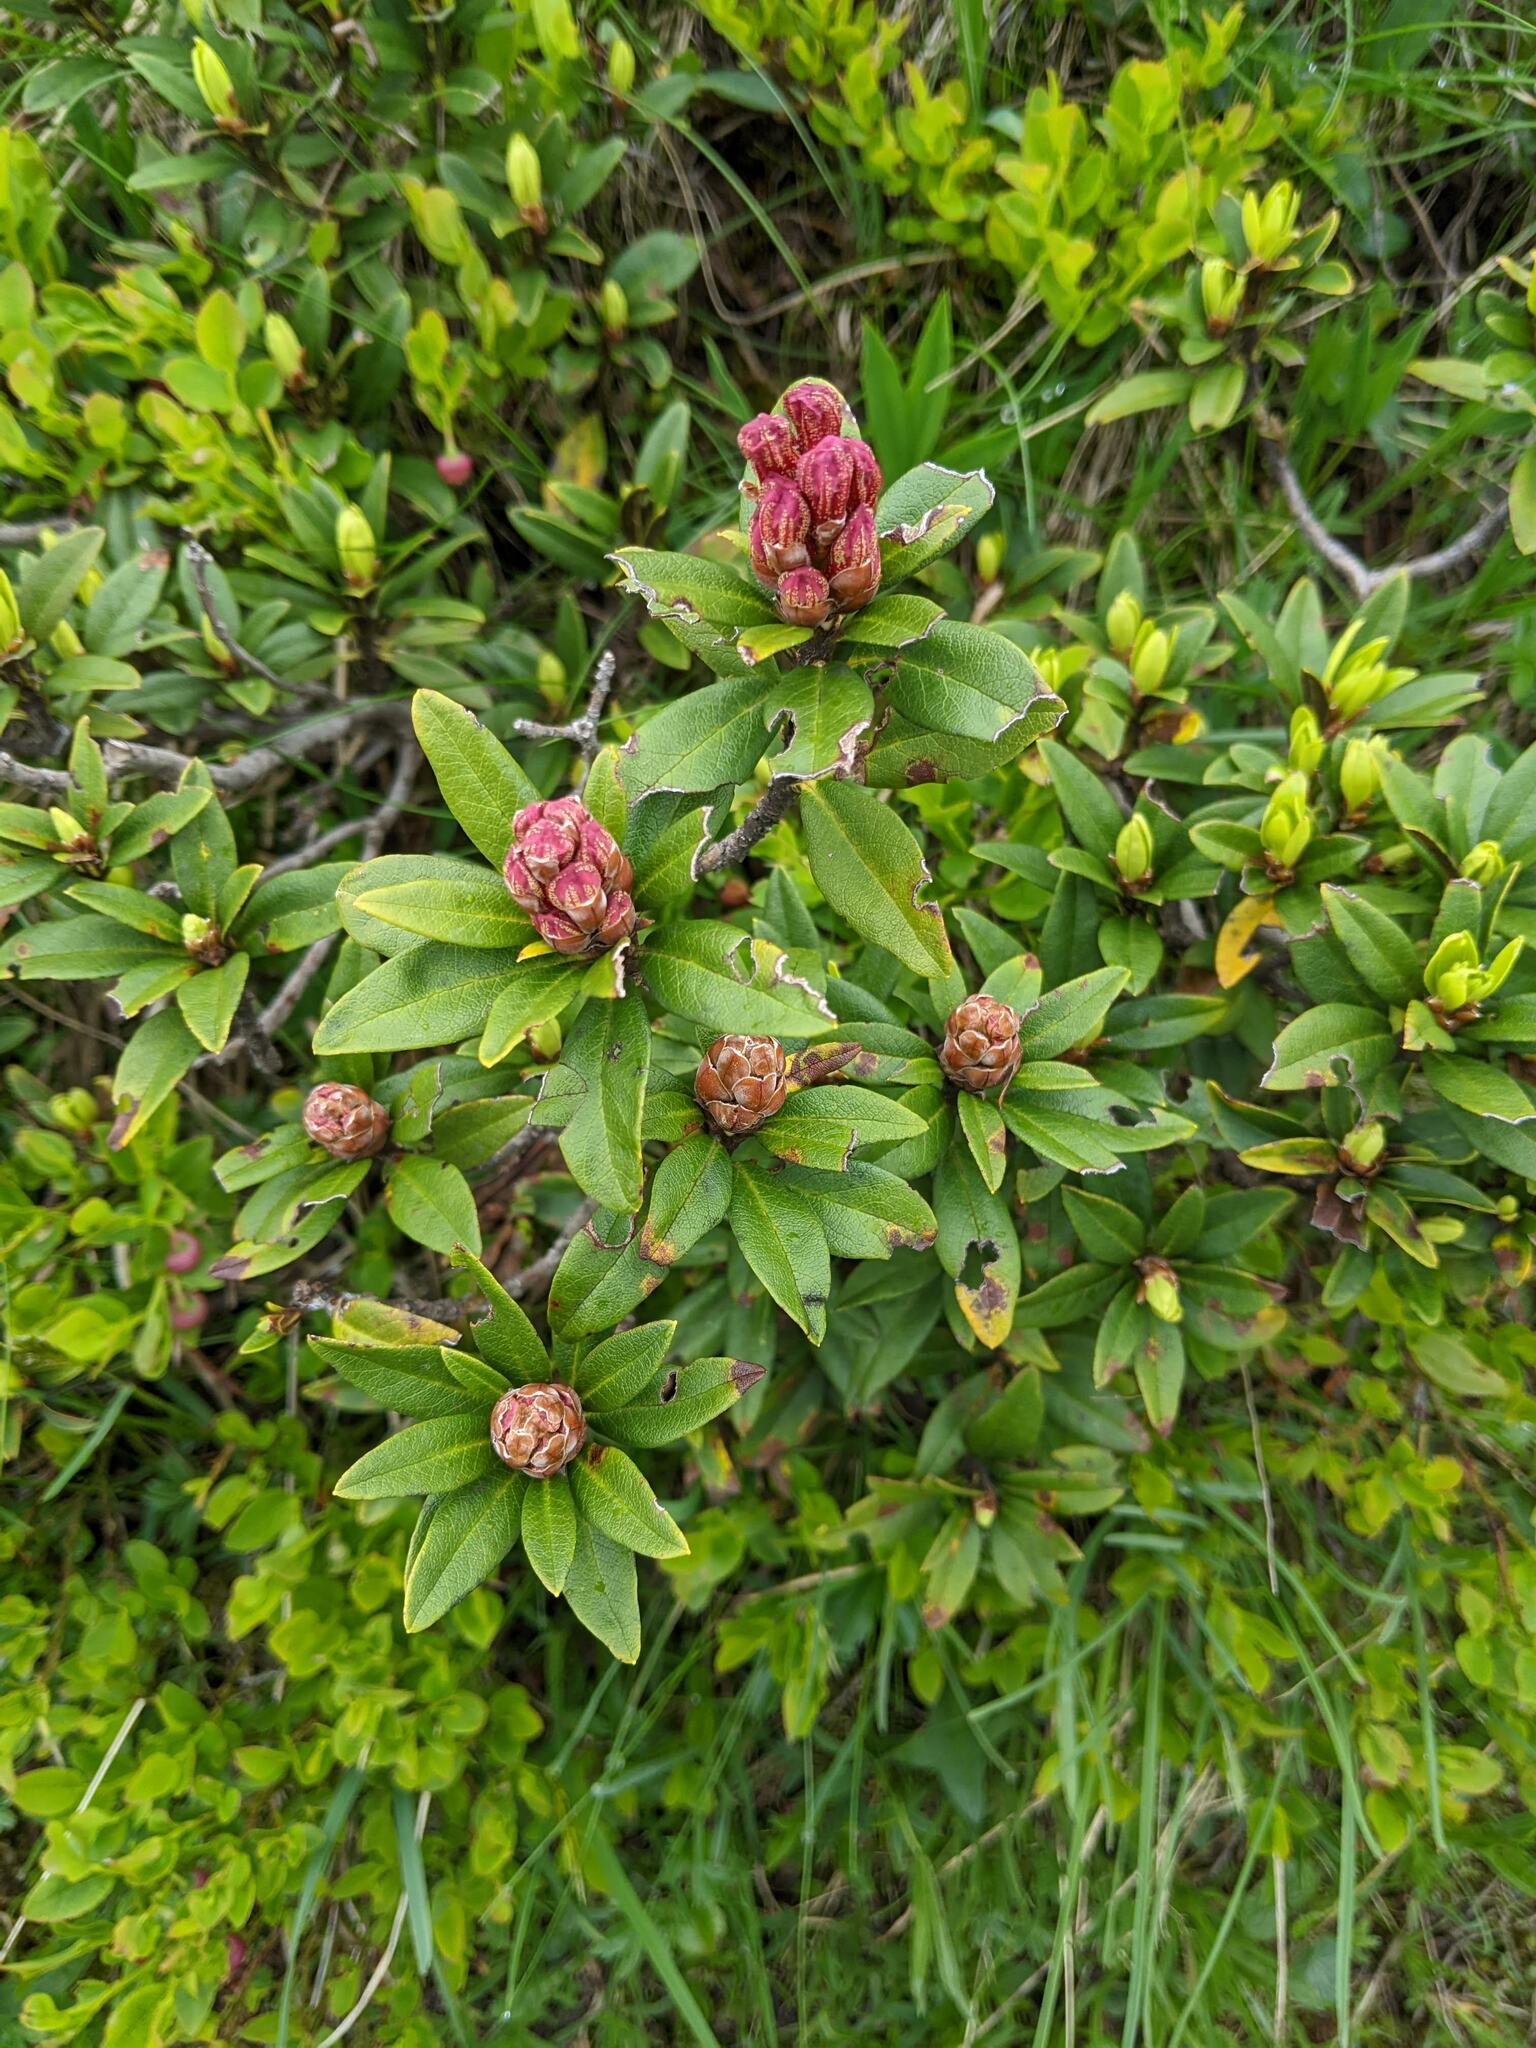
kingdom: Plantae
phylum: Tracheophyta
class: Magnoliopsida
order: Ericales
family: Ericaceae
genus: Rhododendron
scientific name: Rhododendron ferrugineum
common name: Alpenrose
